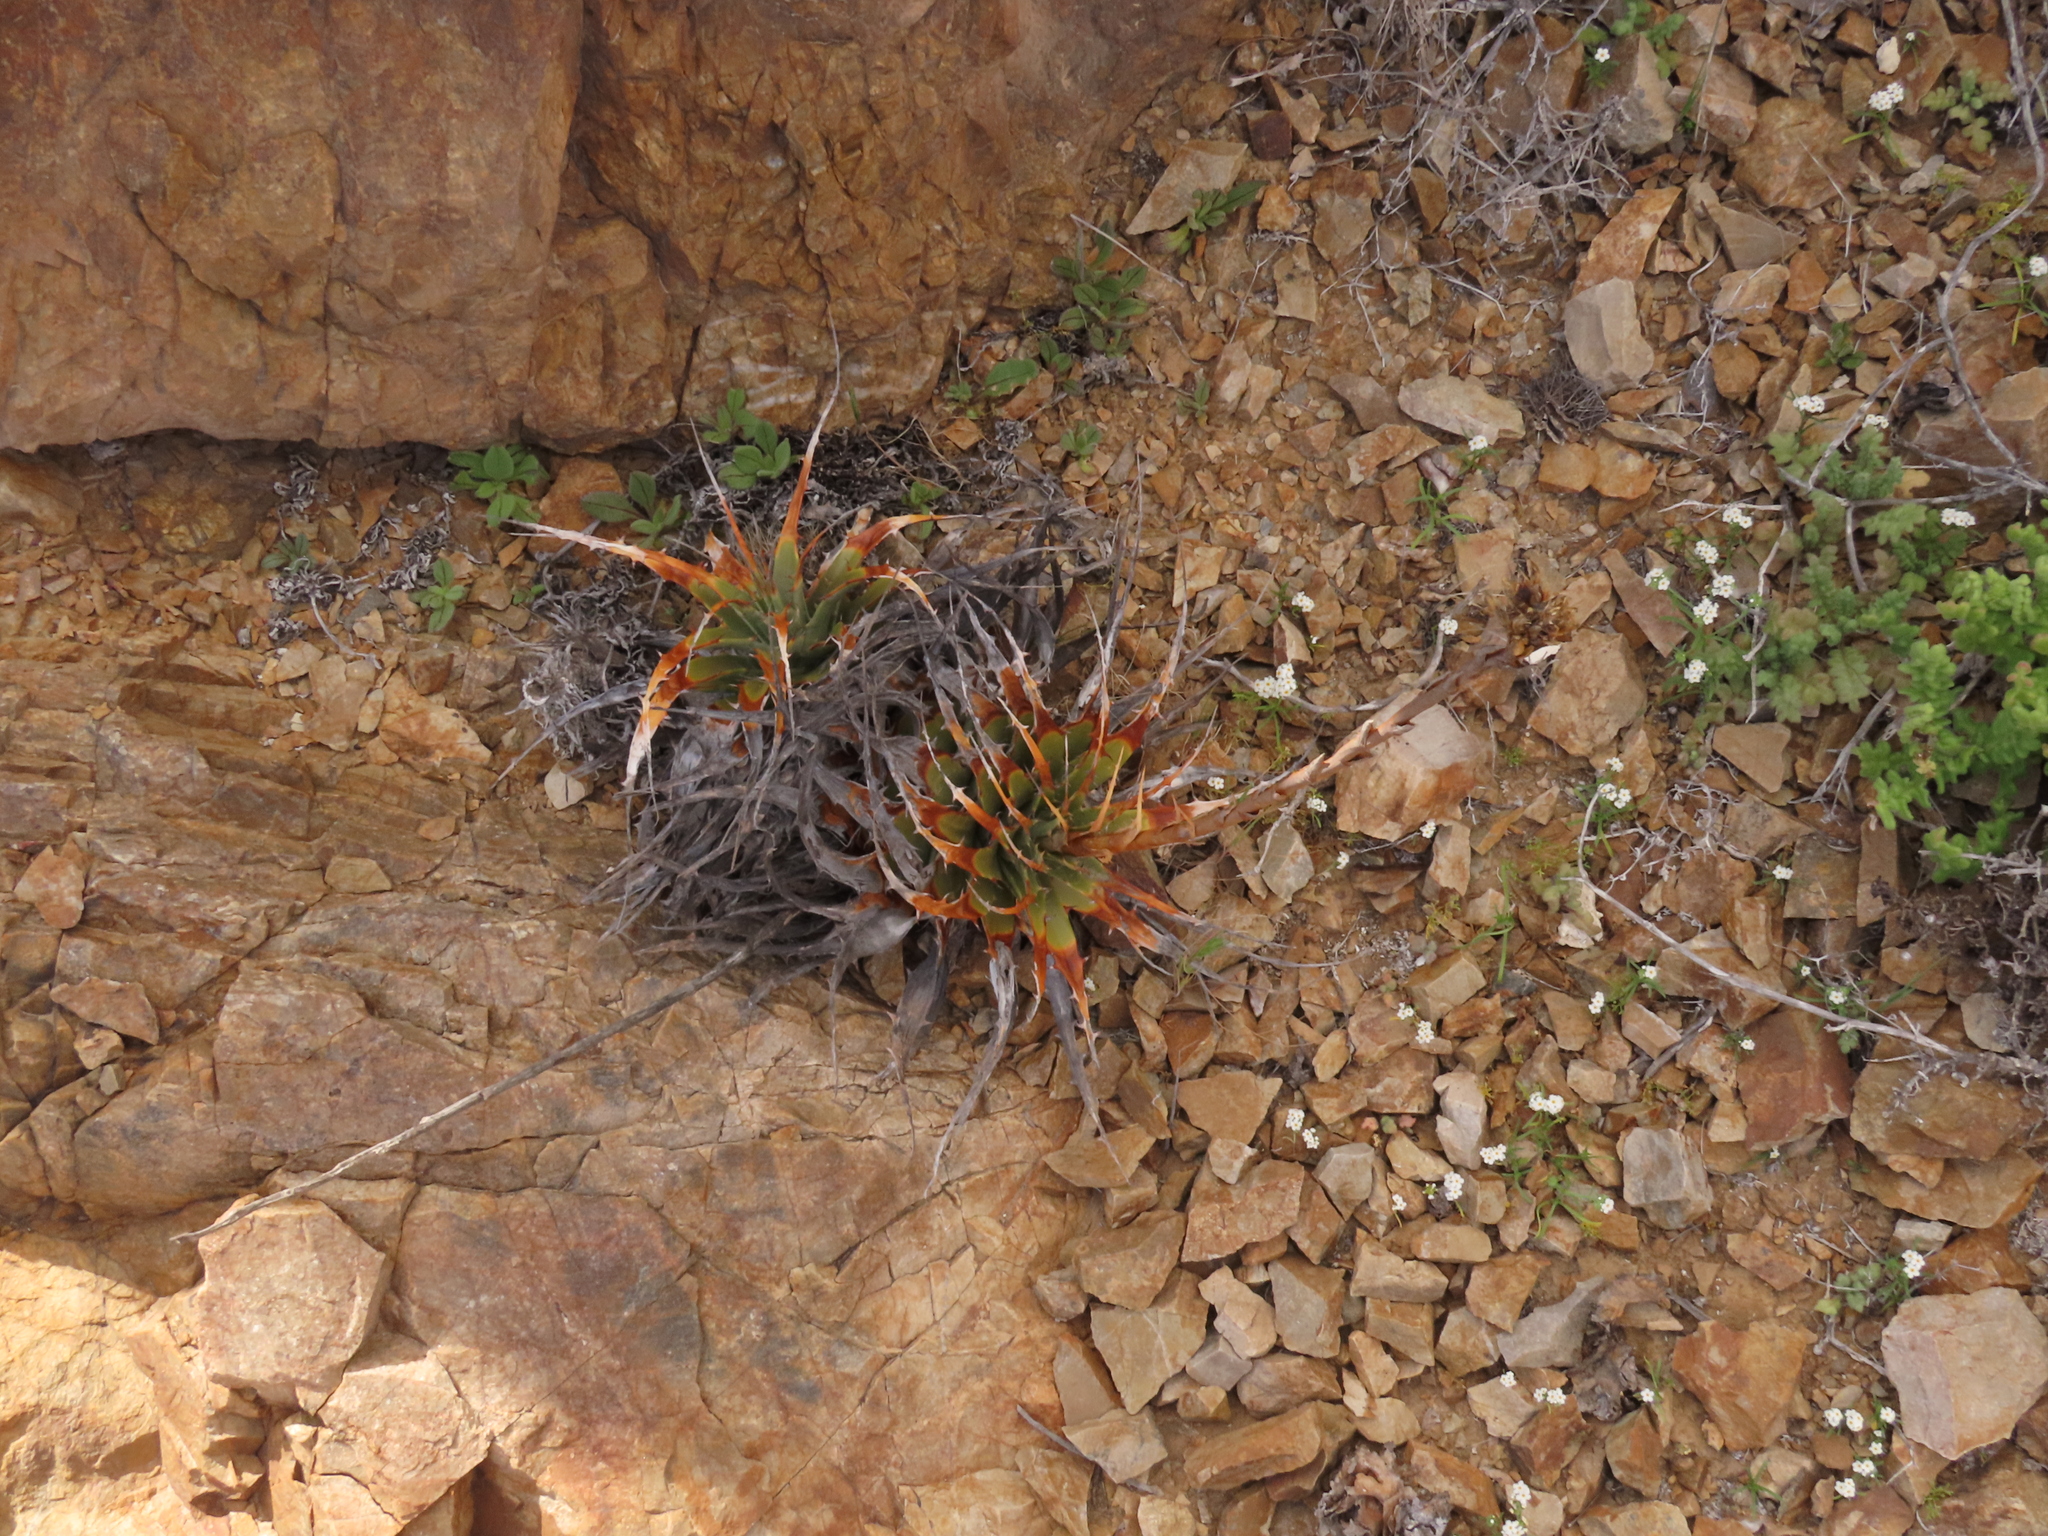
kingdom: Plantae
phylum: Tracheophyta
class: Liliopsida
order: Poales
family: Bromeliaceae
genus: Deuterocohnia
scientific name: Deuterocohnia chrysantha
